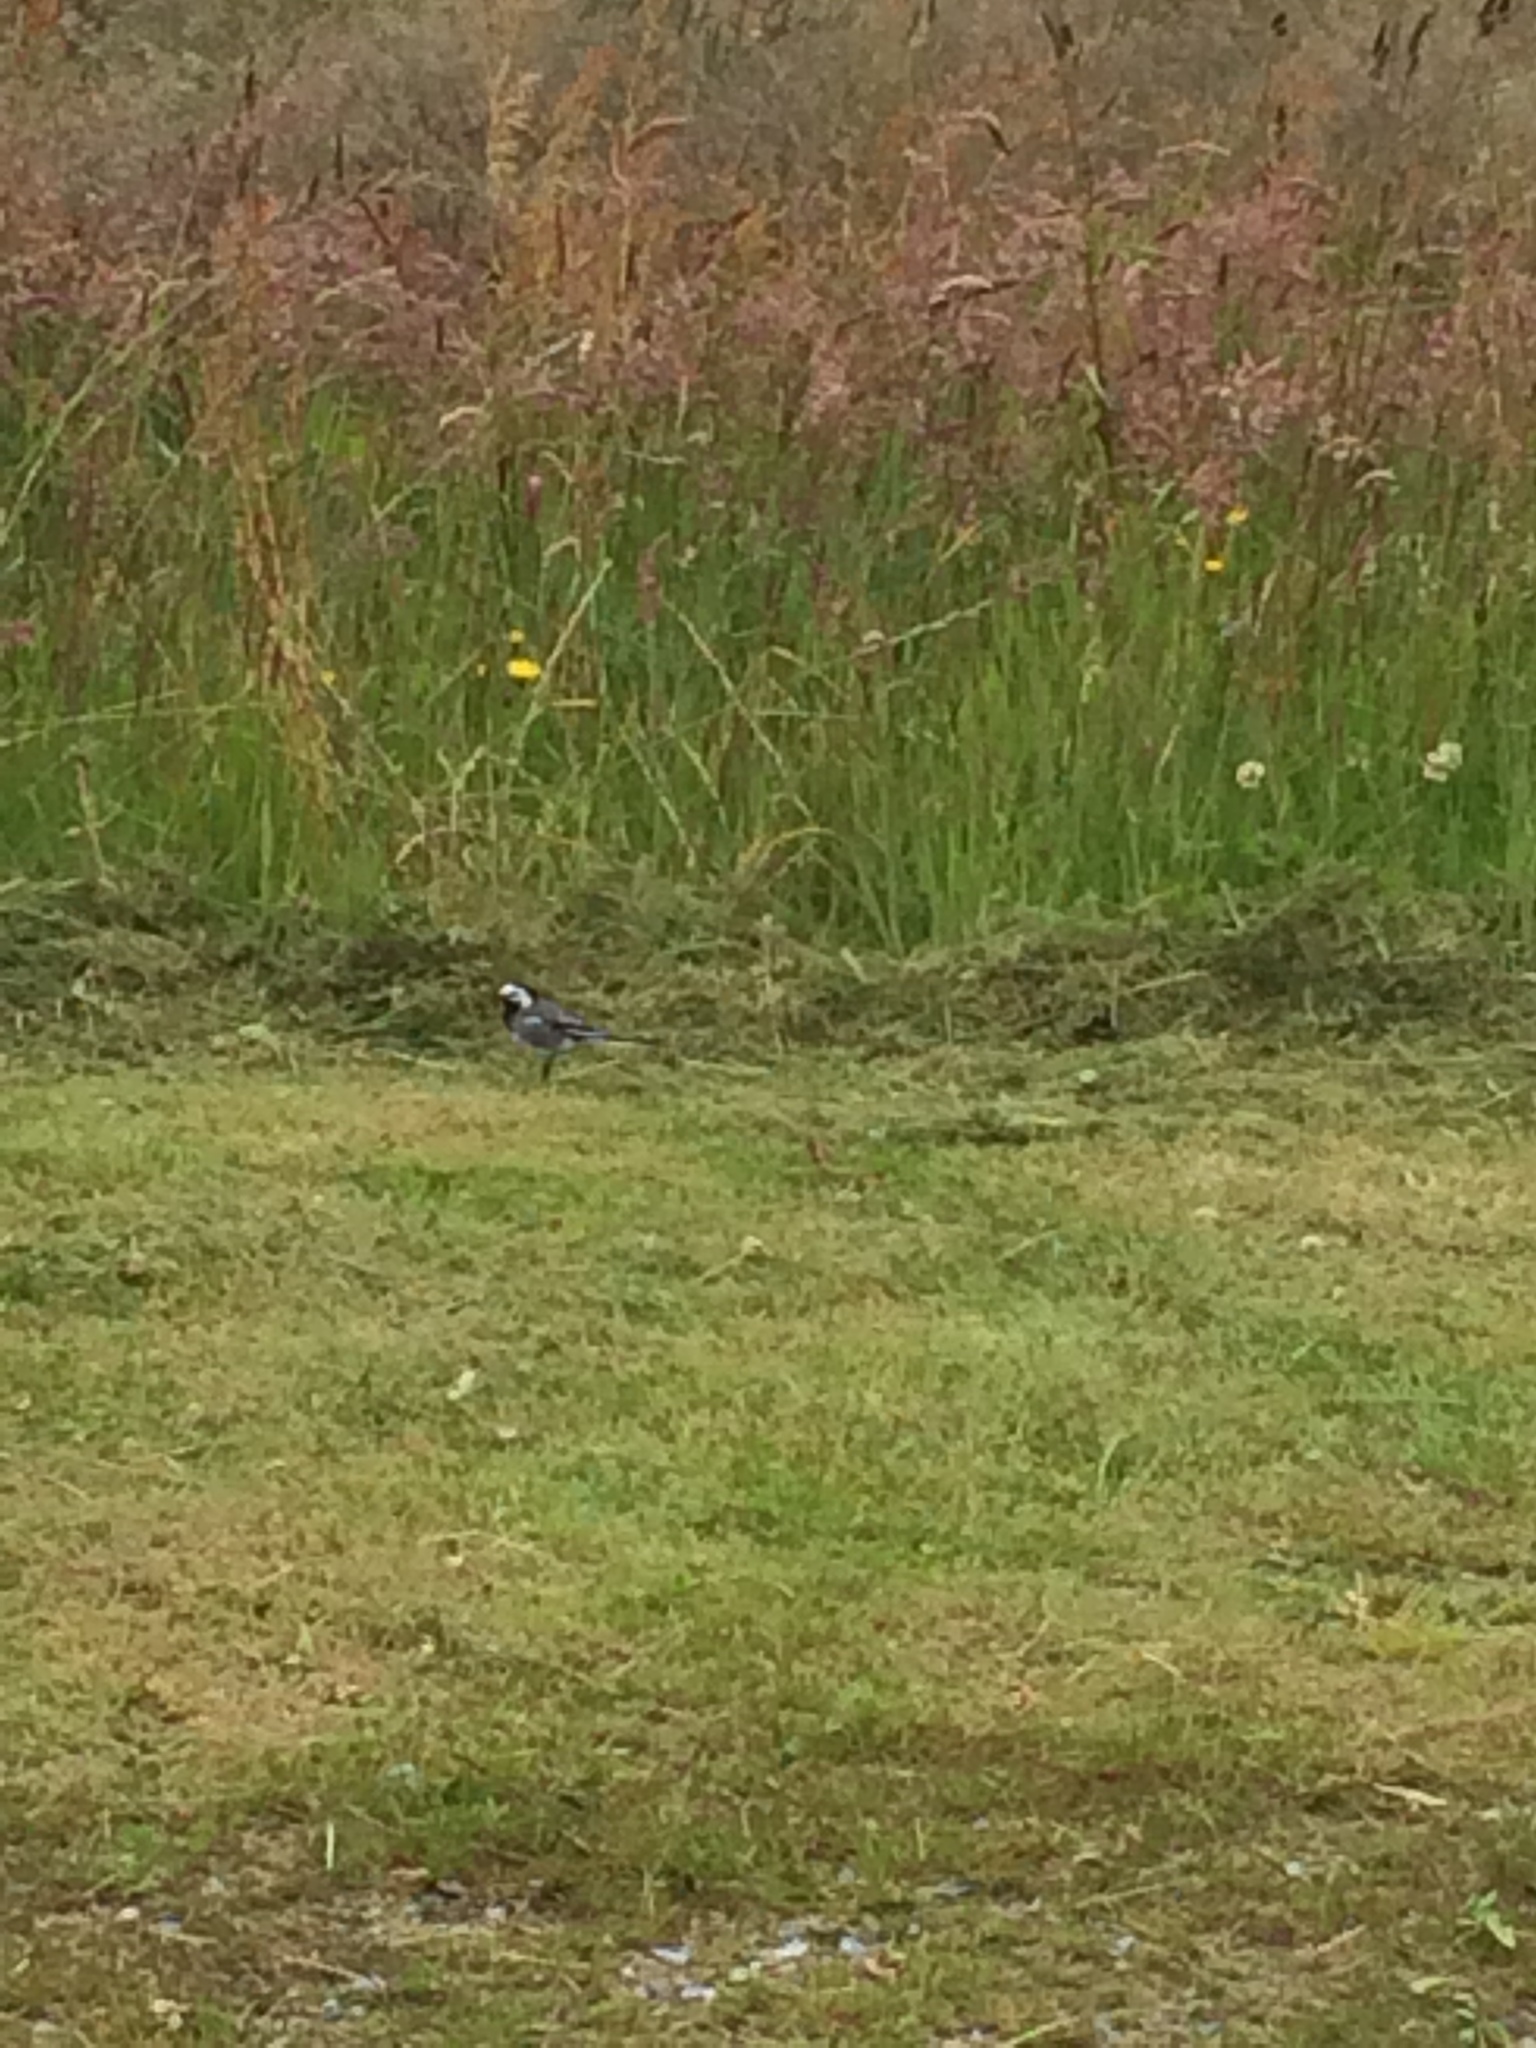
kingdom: Animalia
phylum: Chordata
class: Aves
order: Passeriformes
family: Motacillidae
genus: Motacilla
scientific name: Motacilla alba
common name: White wagtail
